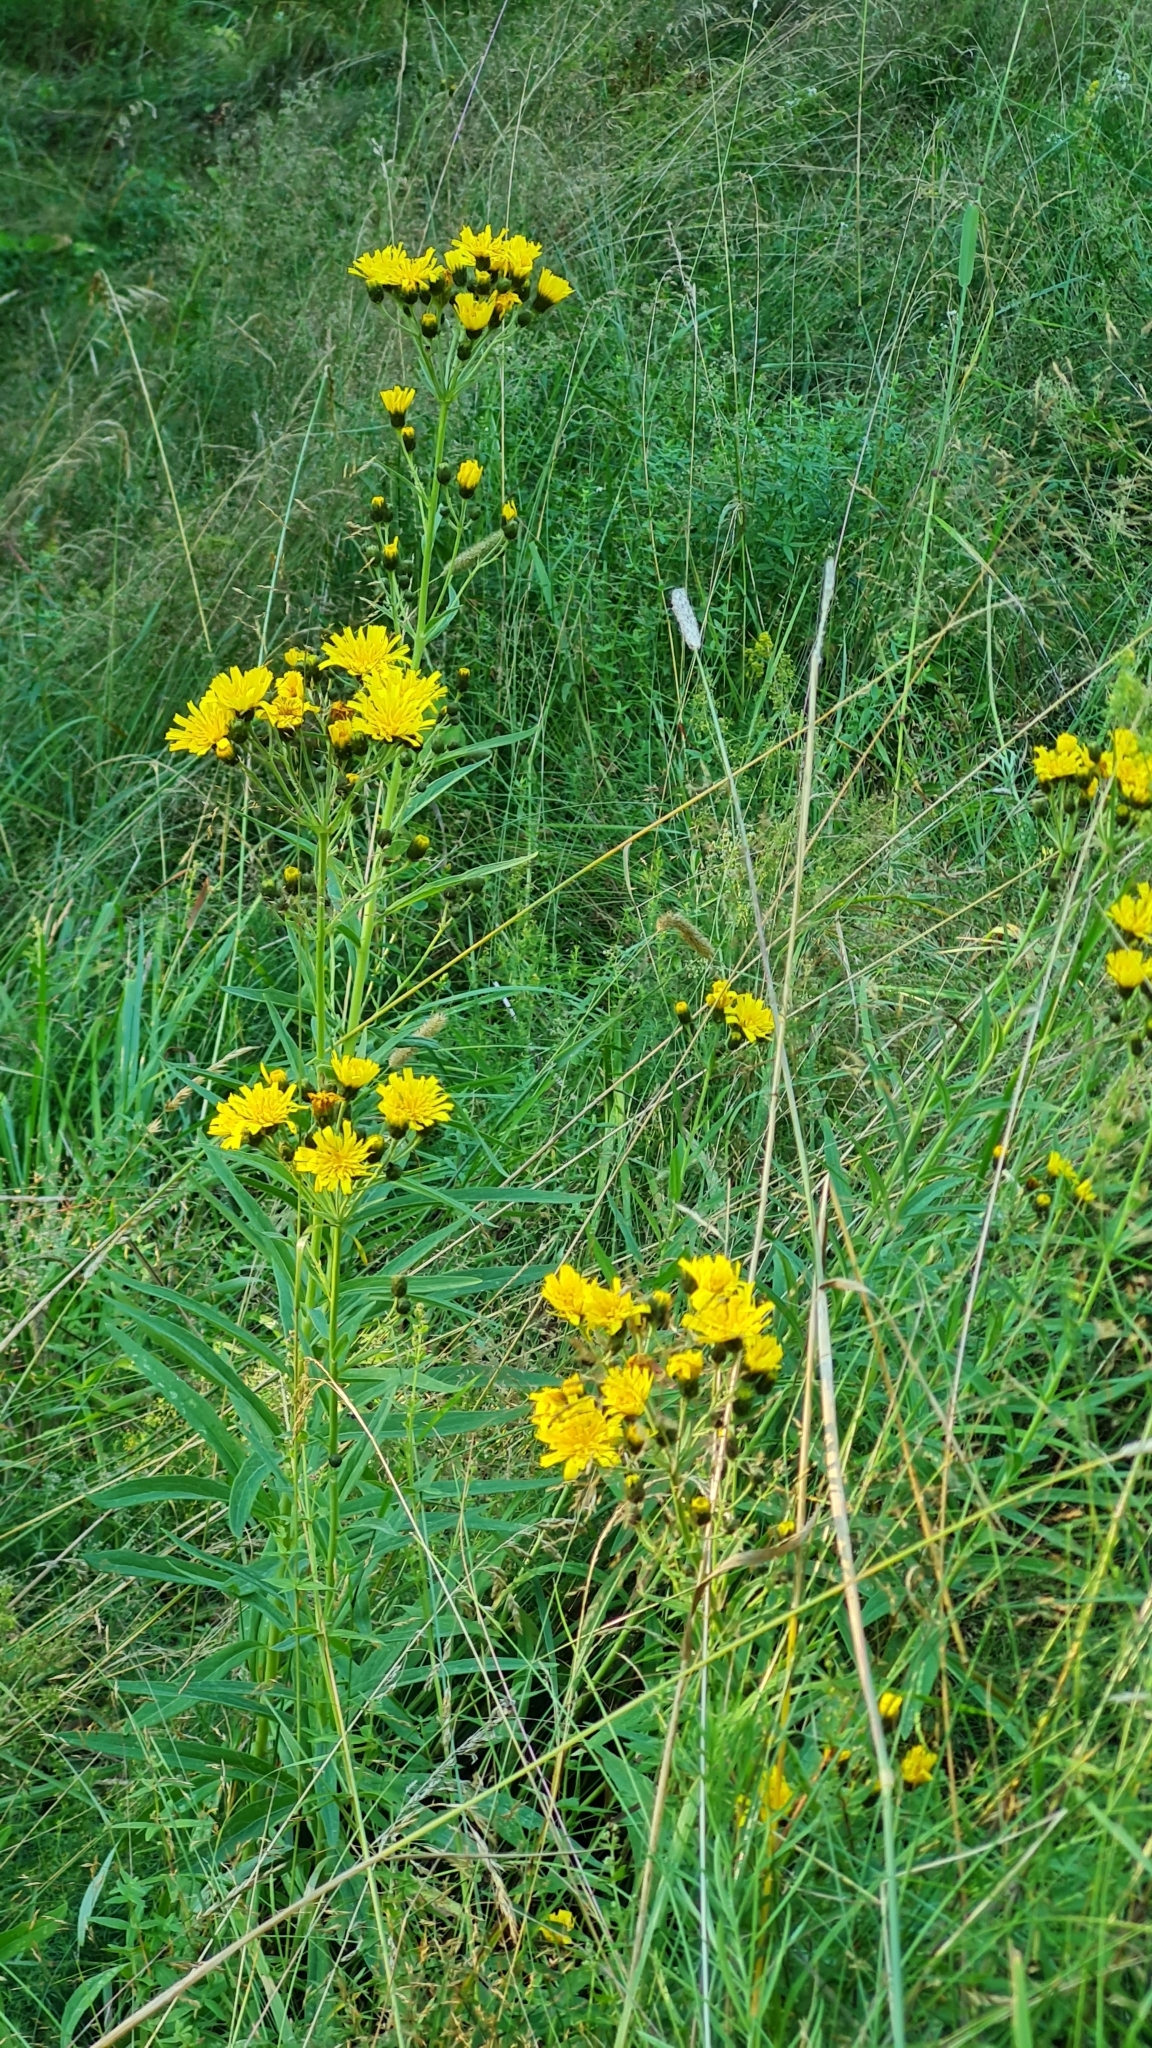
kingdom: Plantae
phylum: Tracheophyta
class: Magnoliopsida
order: Asterales
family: Asteraceae
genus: Hieracium
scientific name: Hieracium umbellatum
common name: Northern hawkweed
